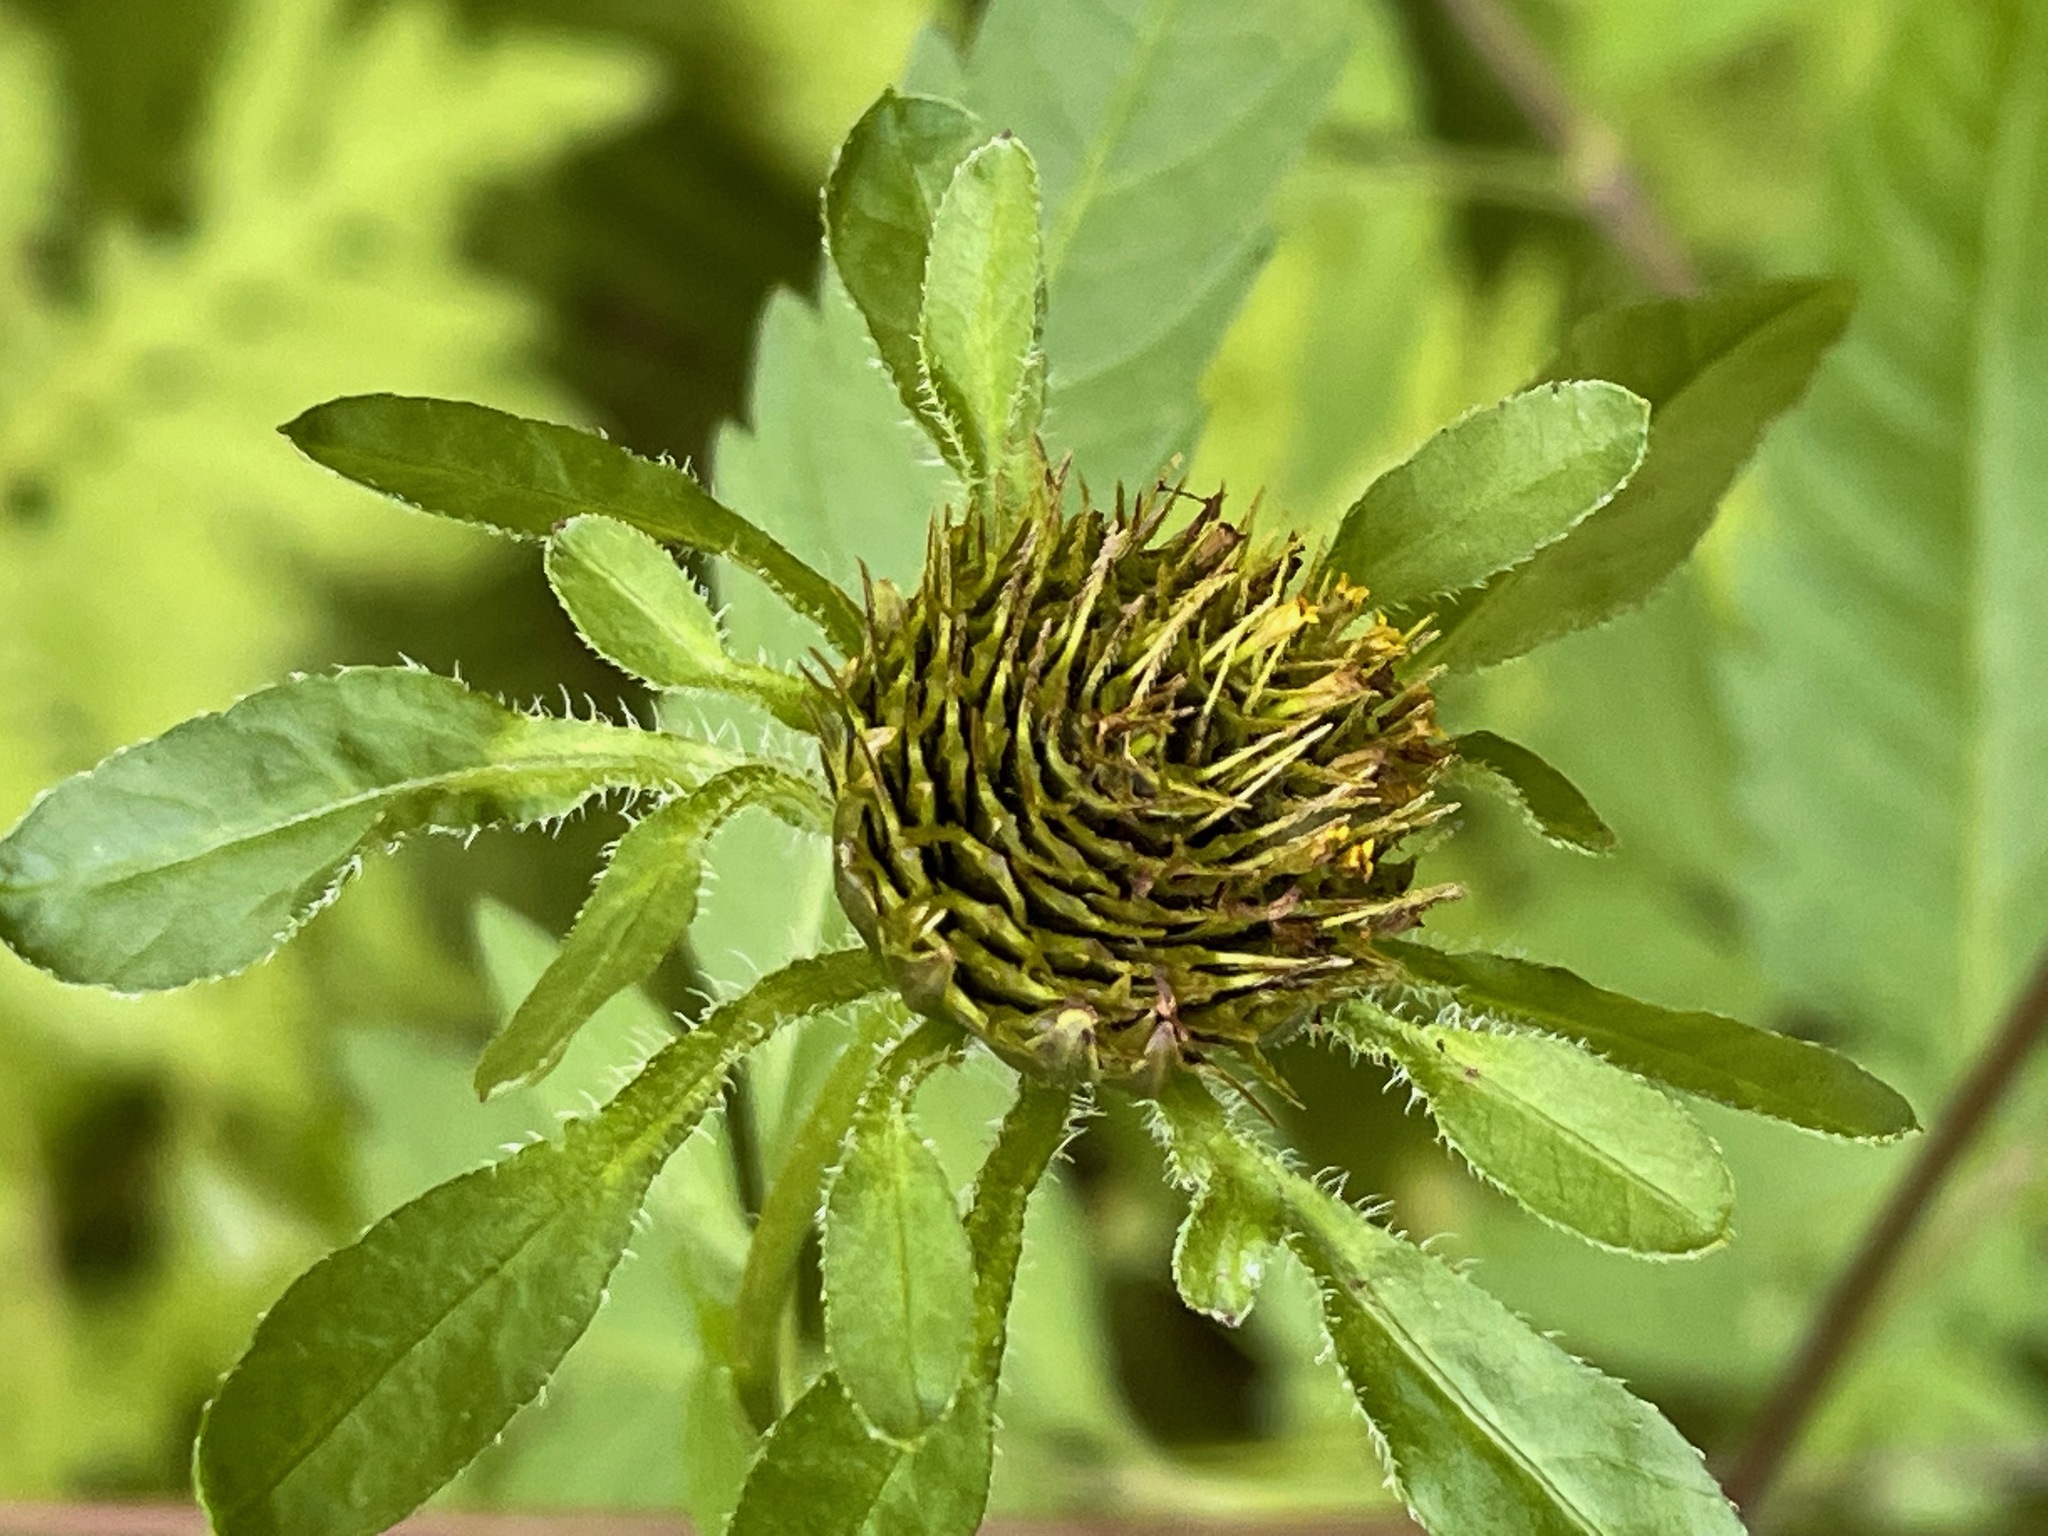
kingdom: Plantae
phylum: Tracheophyta
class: Magnoliopsida
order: Asterales
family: Asteraceae
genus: Bidens
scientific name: Bidens vulgata
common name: Tall beggarticks
